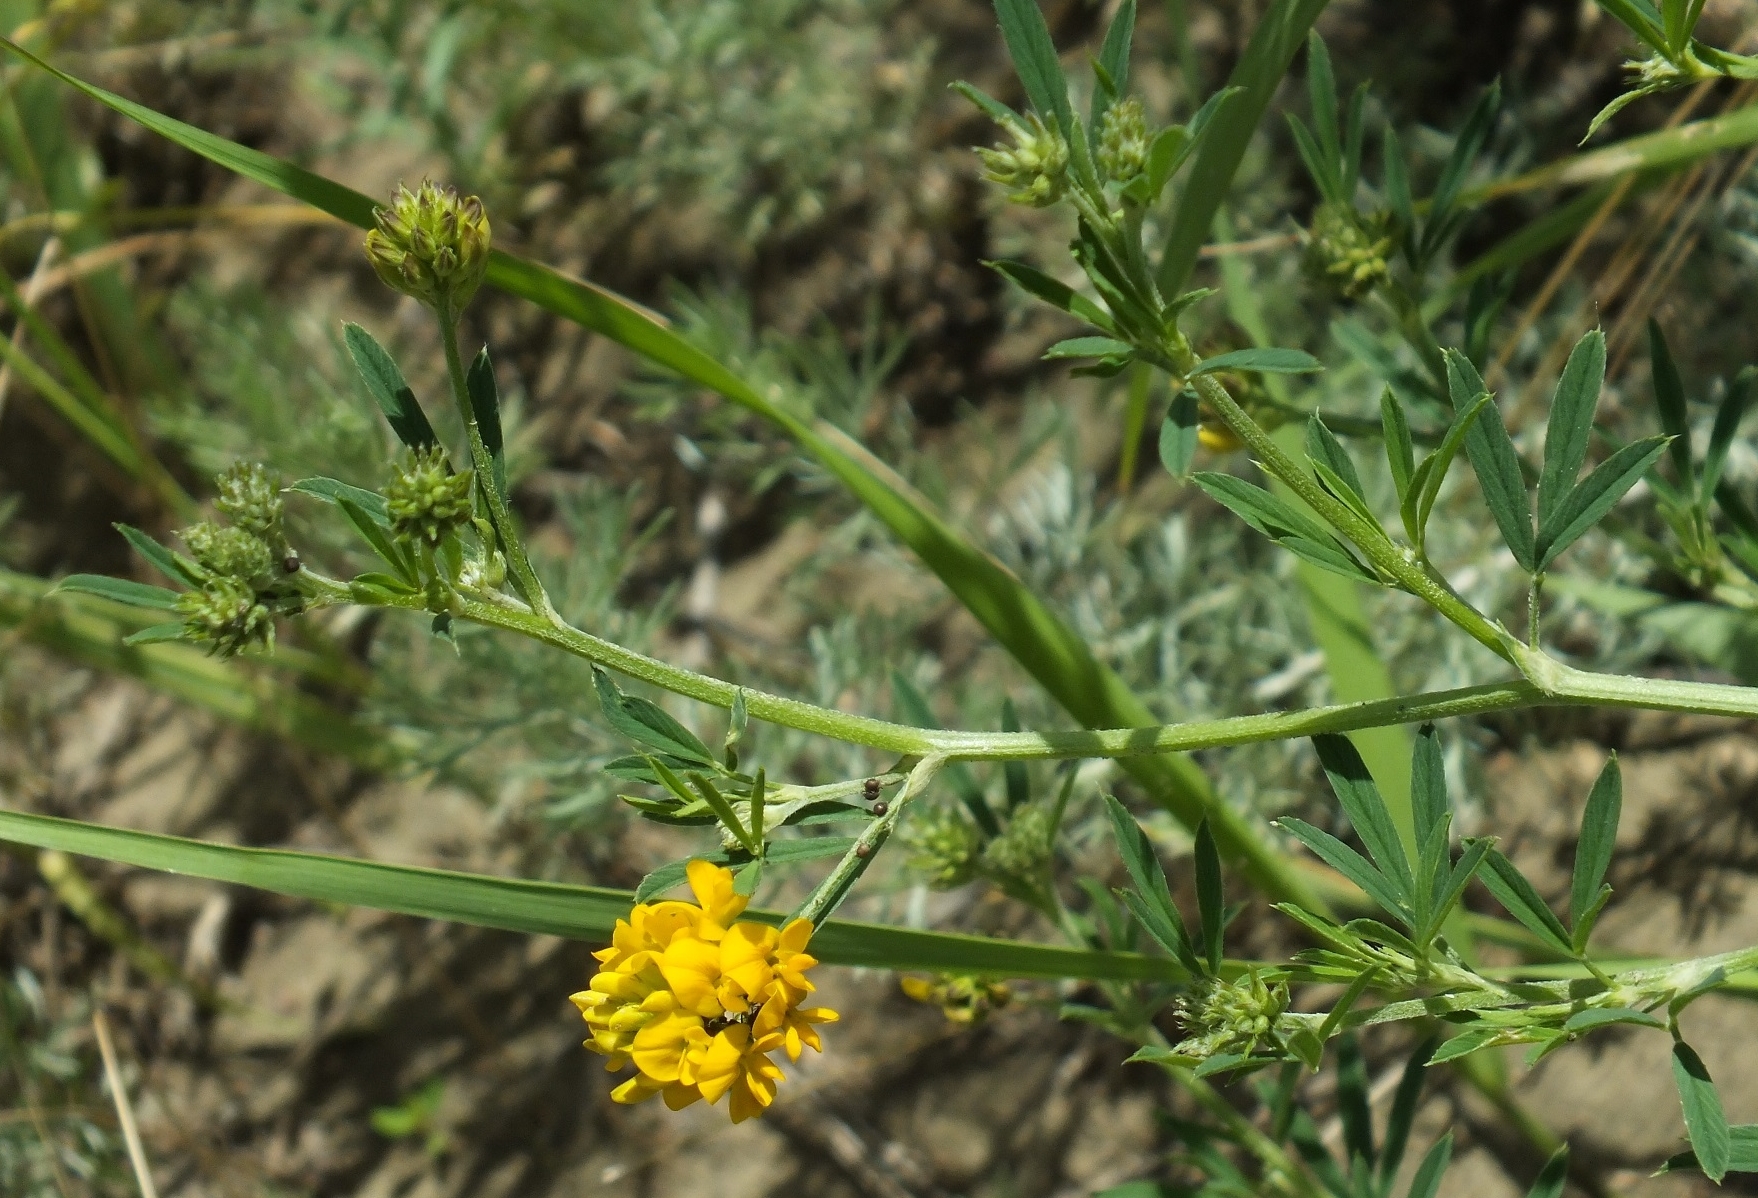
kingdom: Plantae
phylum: Tracheophyta
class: Magnoliopsida
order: Fabales
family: Fabaceae
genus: Medicago
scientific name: Medicago falcata
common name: Sickle medick
